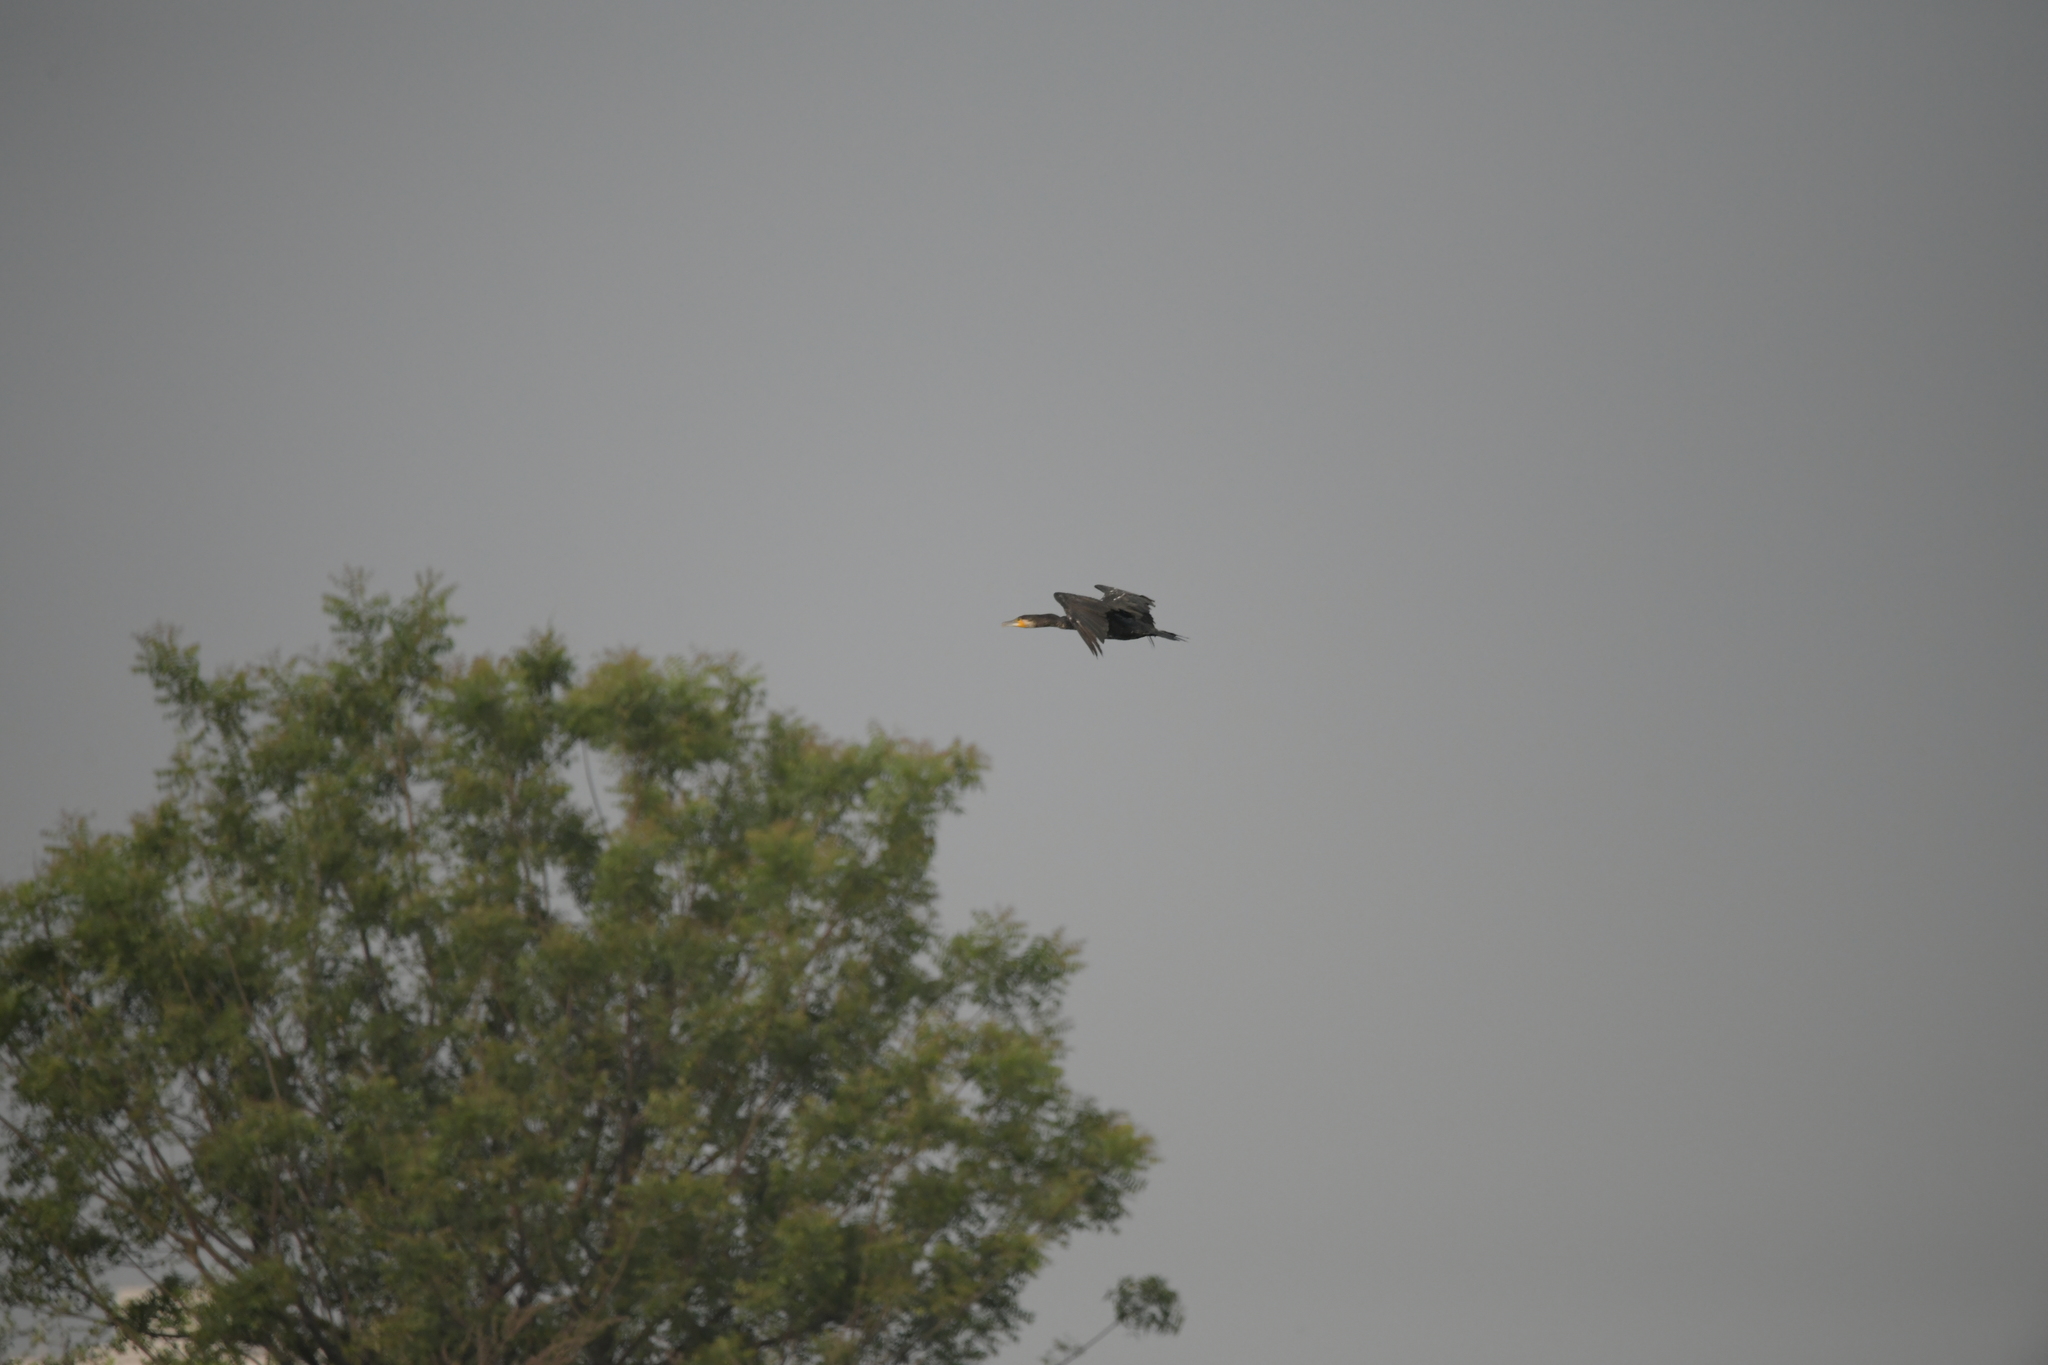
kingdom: Animalia
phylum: Chordata
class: Aves
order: Suliformes
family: Phalacrocoracidae
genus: Phalacrocorax
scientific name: Phalacrocorax carbo
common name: Great cormorant
